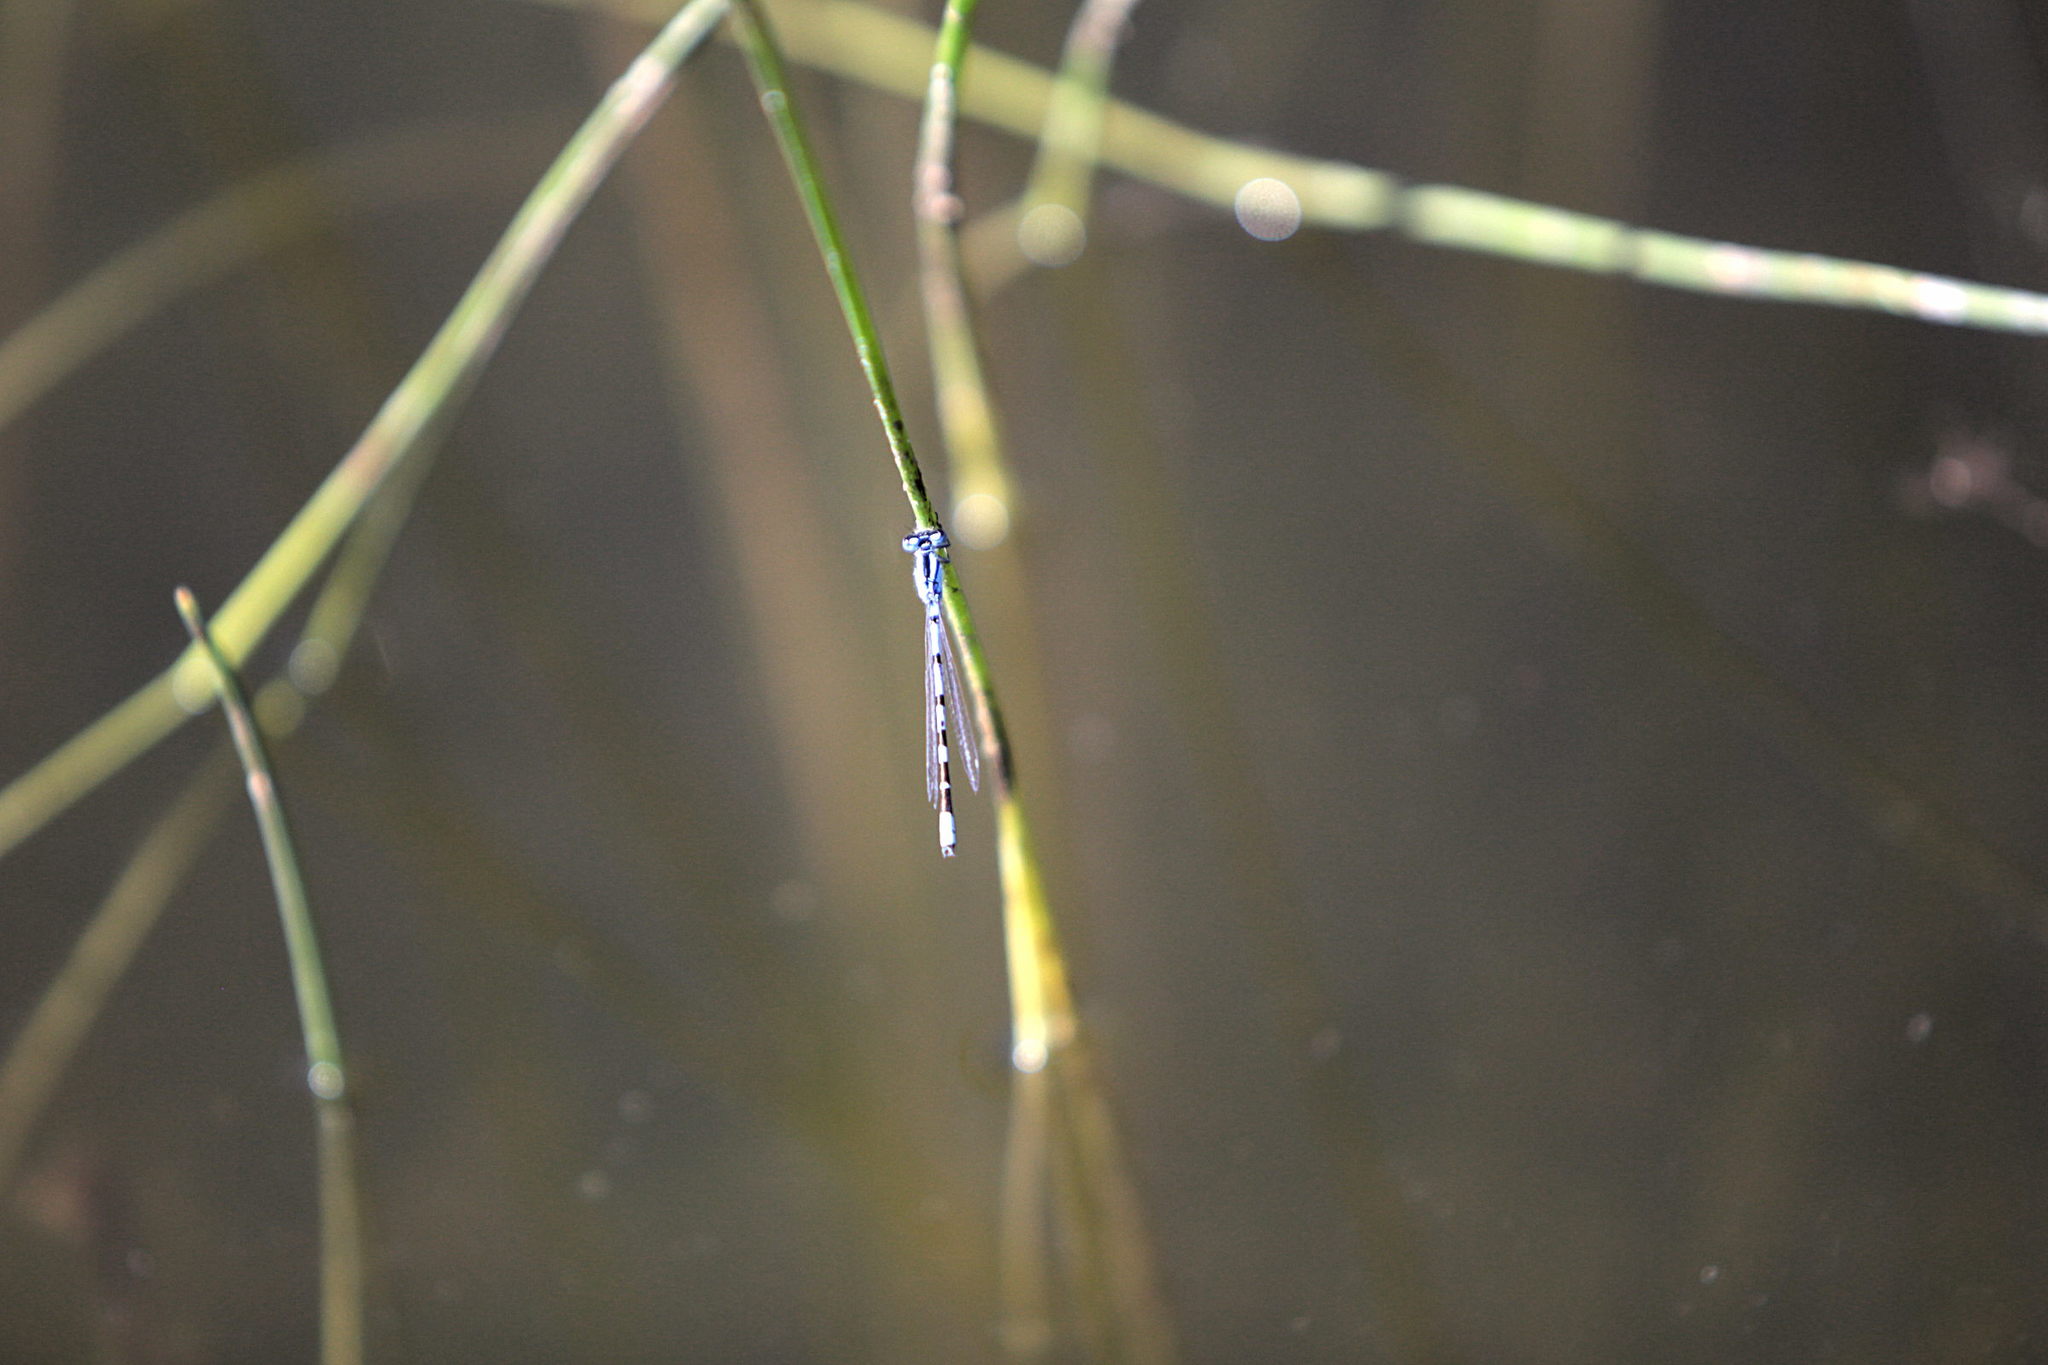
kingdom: Animalia
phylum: Arthropoda
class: Insecta
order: Odonata
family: Coenagrionidae
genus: Enallagma
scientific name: Enallagma cyathigerum
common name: Common blue damselfly
